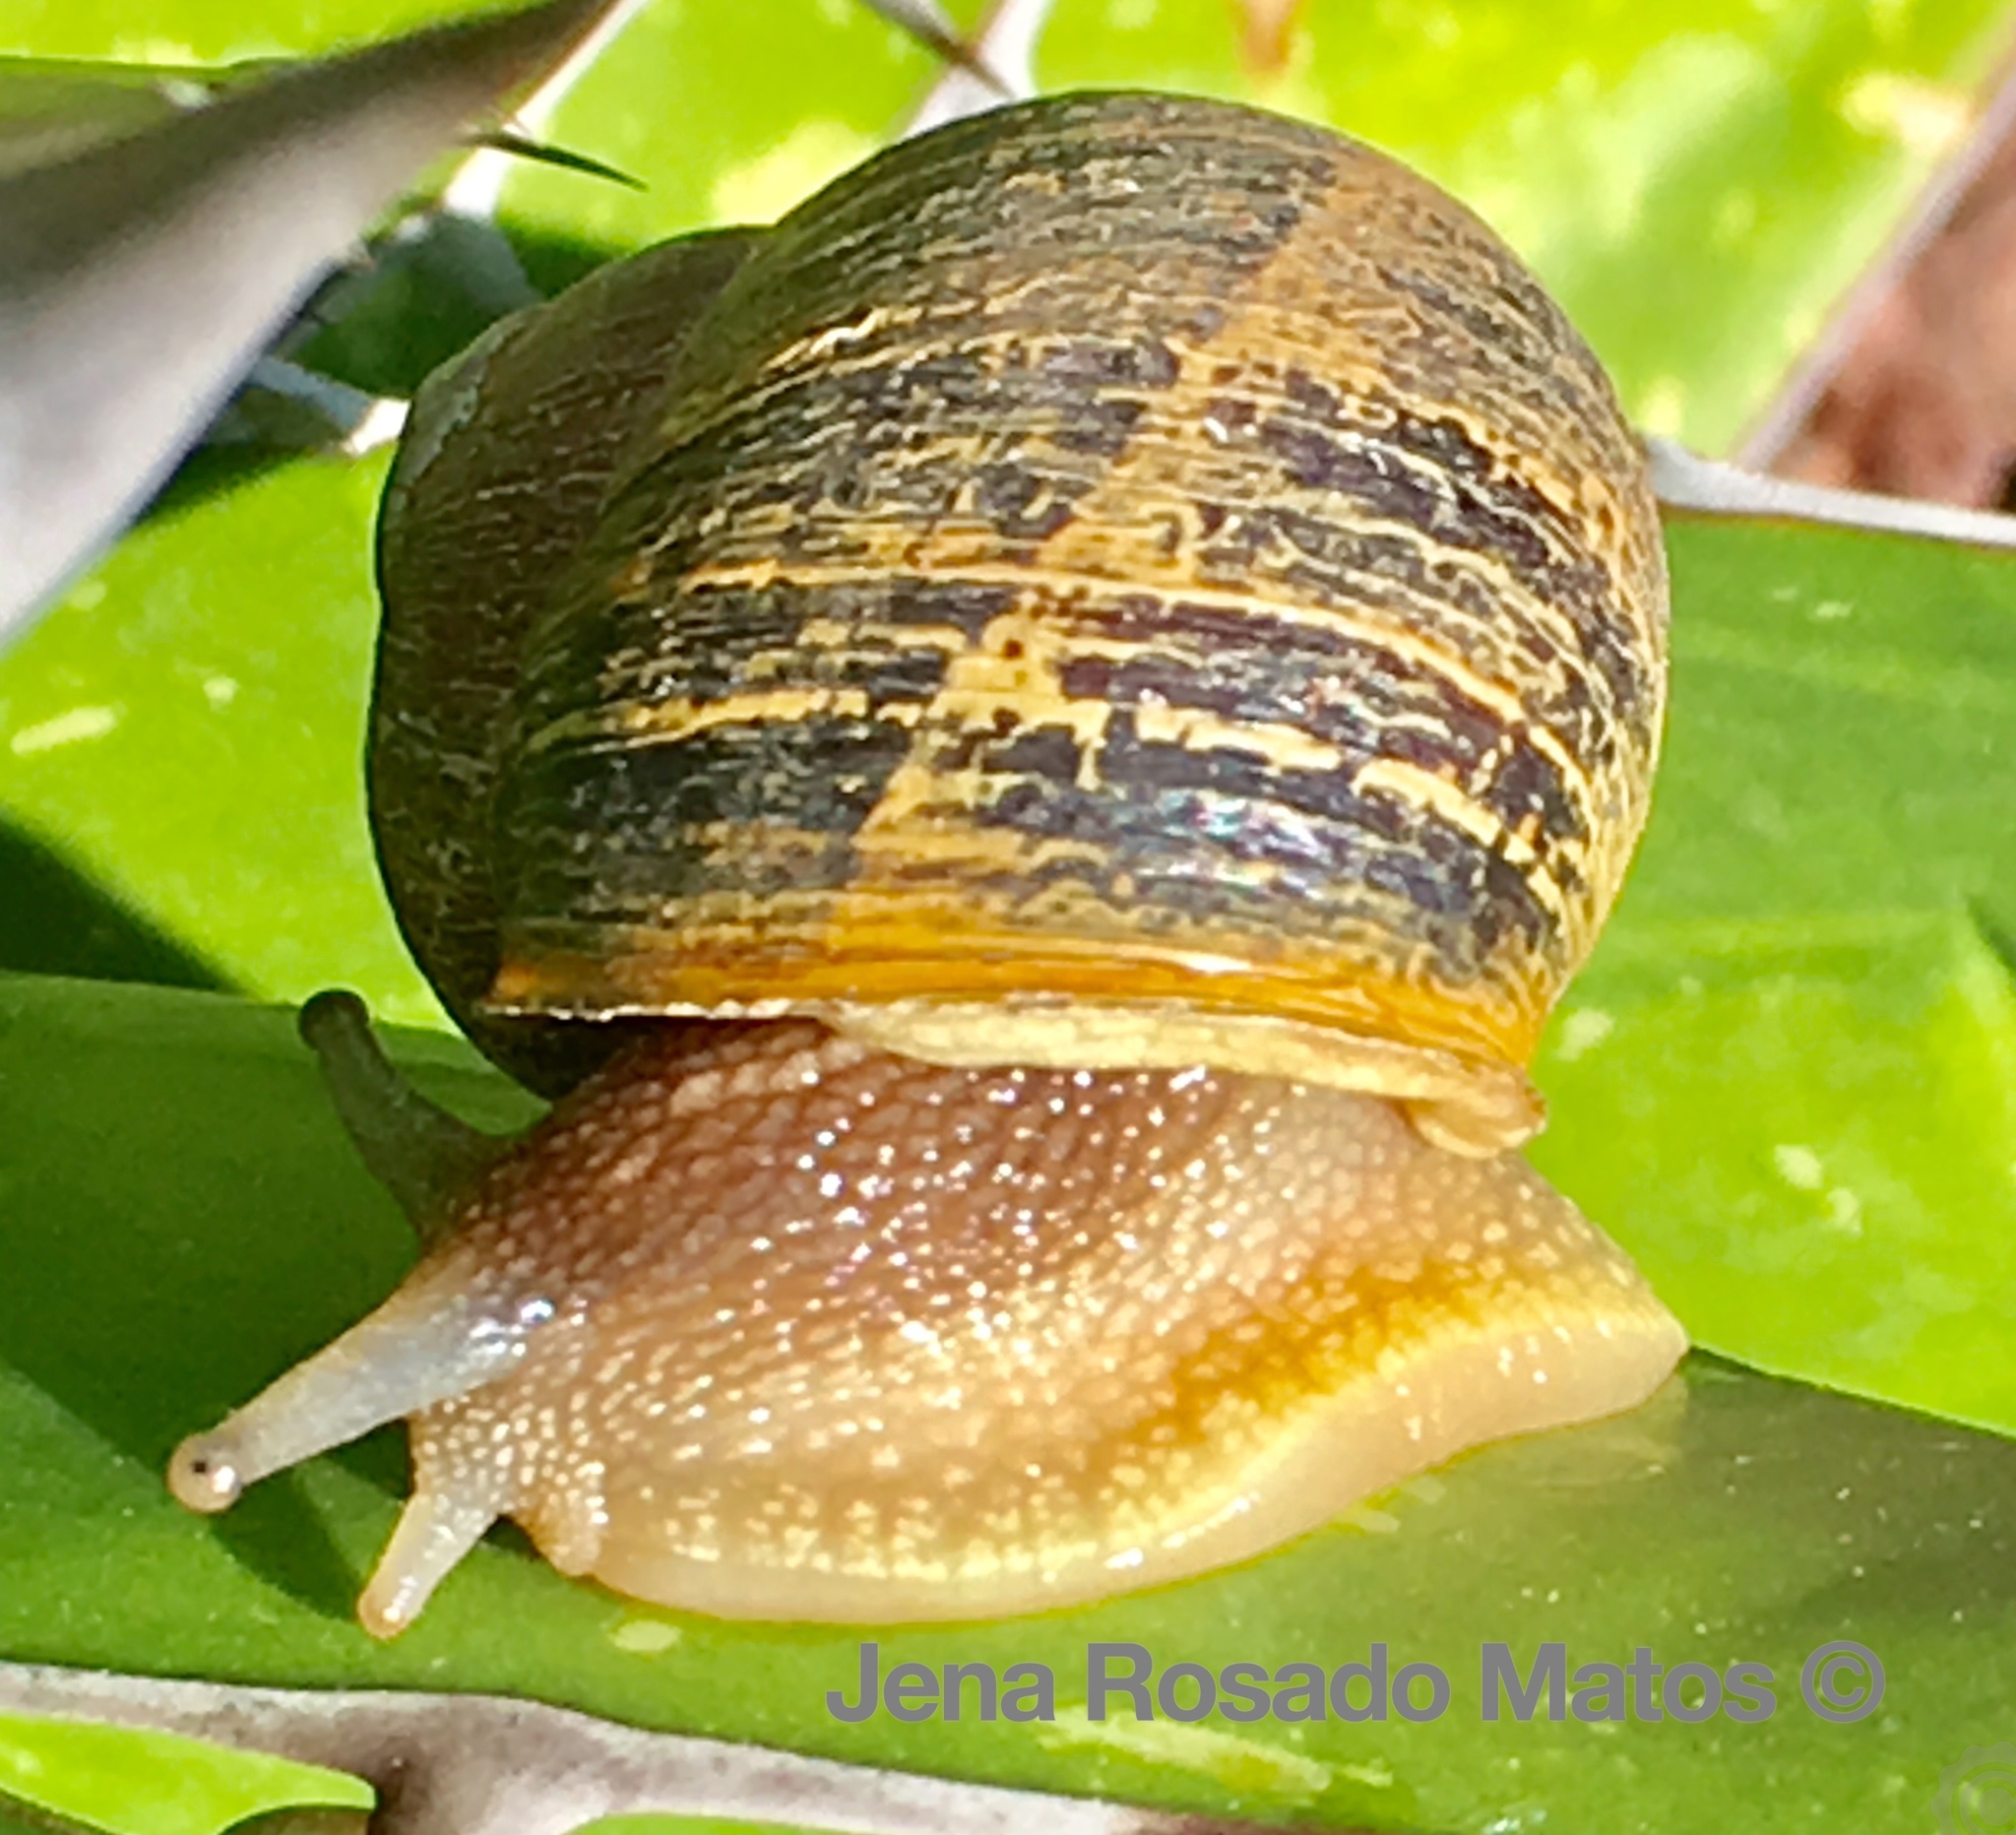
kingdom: Animalia
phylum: Mollusca
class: Gastropoda
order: Stylommatophora
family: Helicidae
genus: Cornu
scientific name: Cornu aspersum
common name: Brown garden snail
